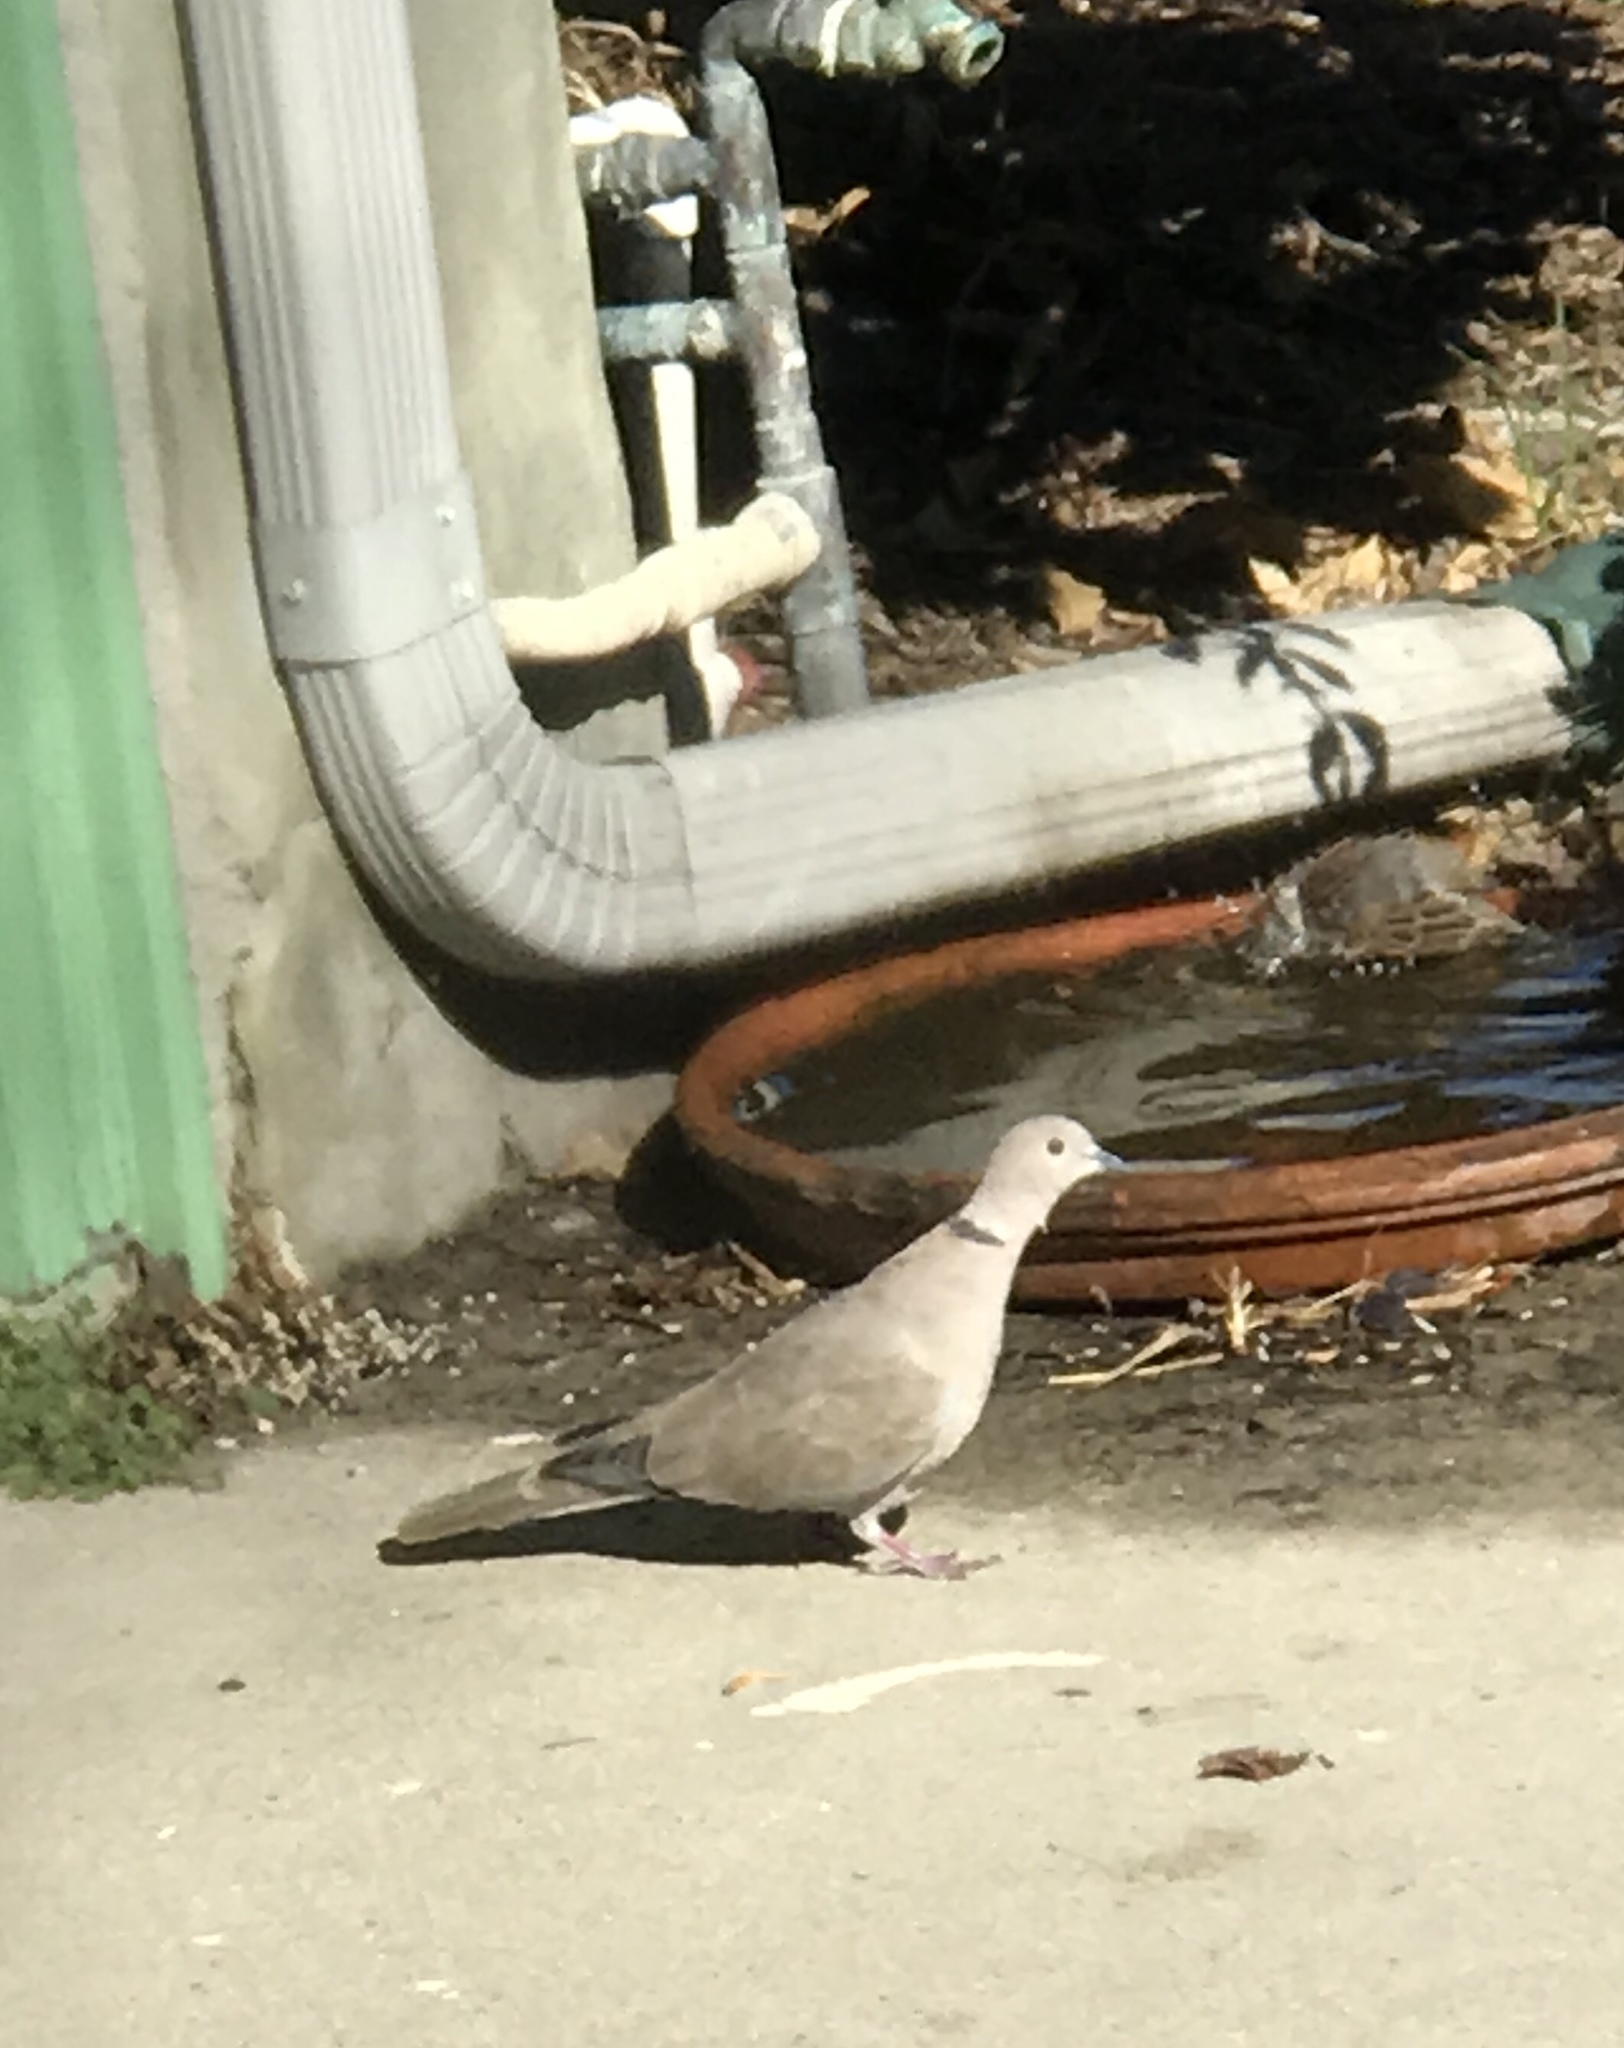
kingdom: Animalia
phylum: Chordata
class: Aves
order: Columbiformes
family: Columbidae
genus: Streptopelia
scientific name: Streptopelia decaocto
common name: Eurasian collared dove
